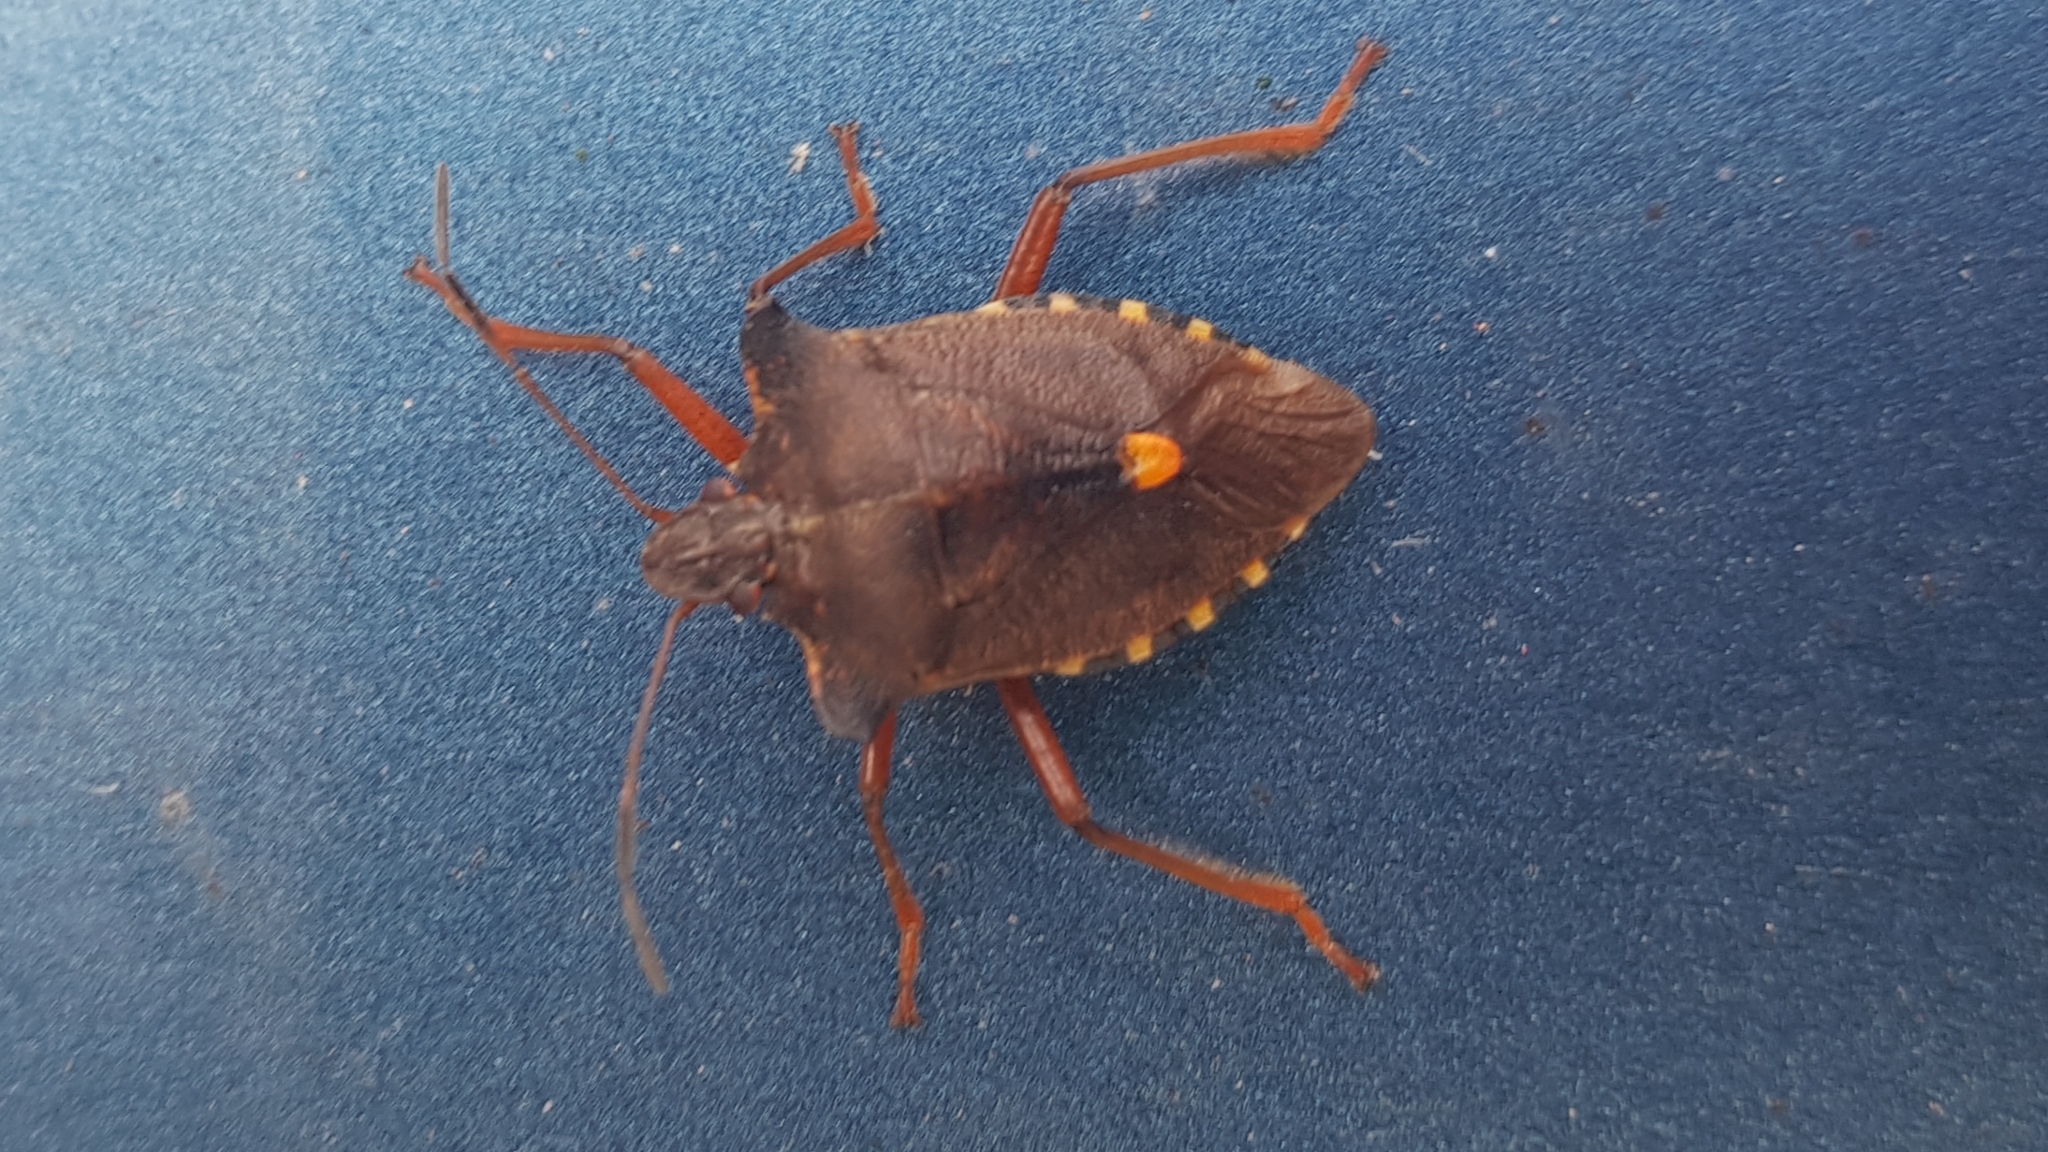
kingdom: Animalia
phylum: Arthropoda
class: Insecta
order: Hemiptera
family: Pentatomidae
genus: Pentatoma
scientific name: Pentatoma rufipes
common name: Forest bug
